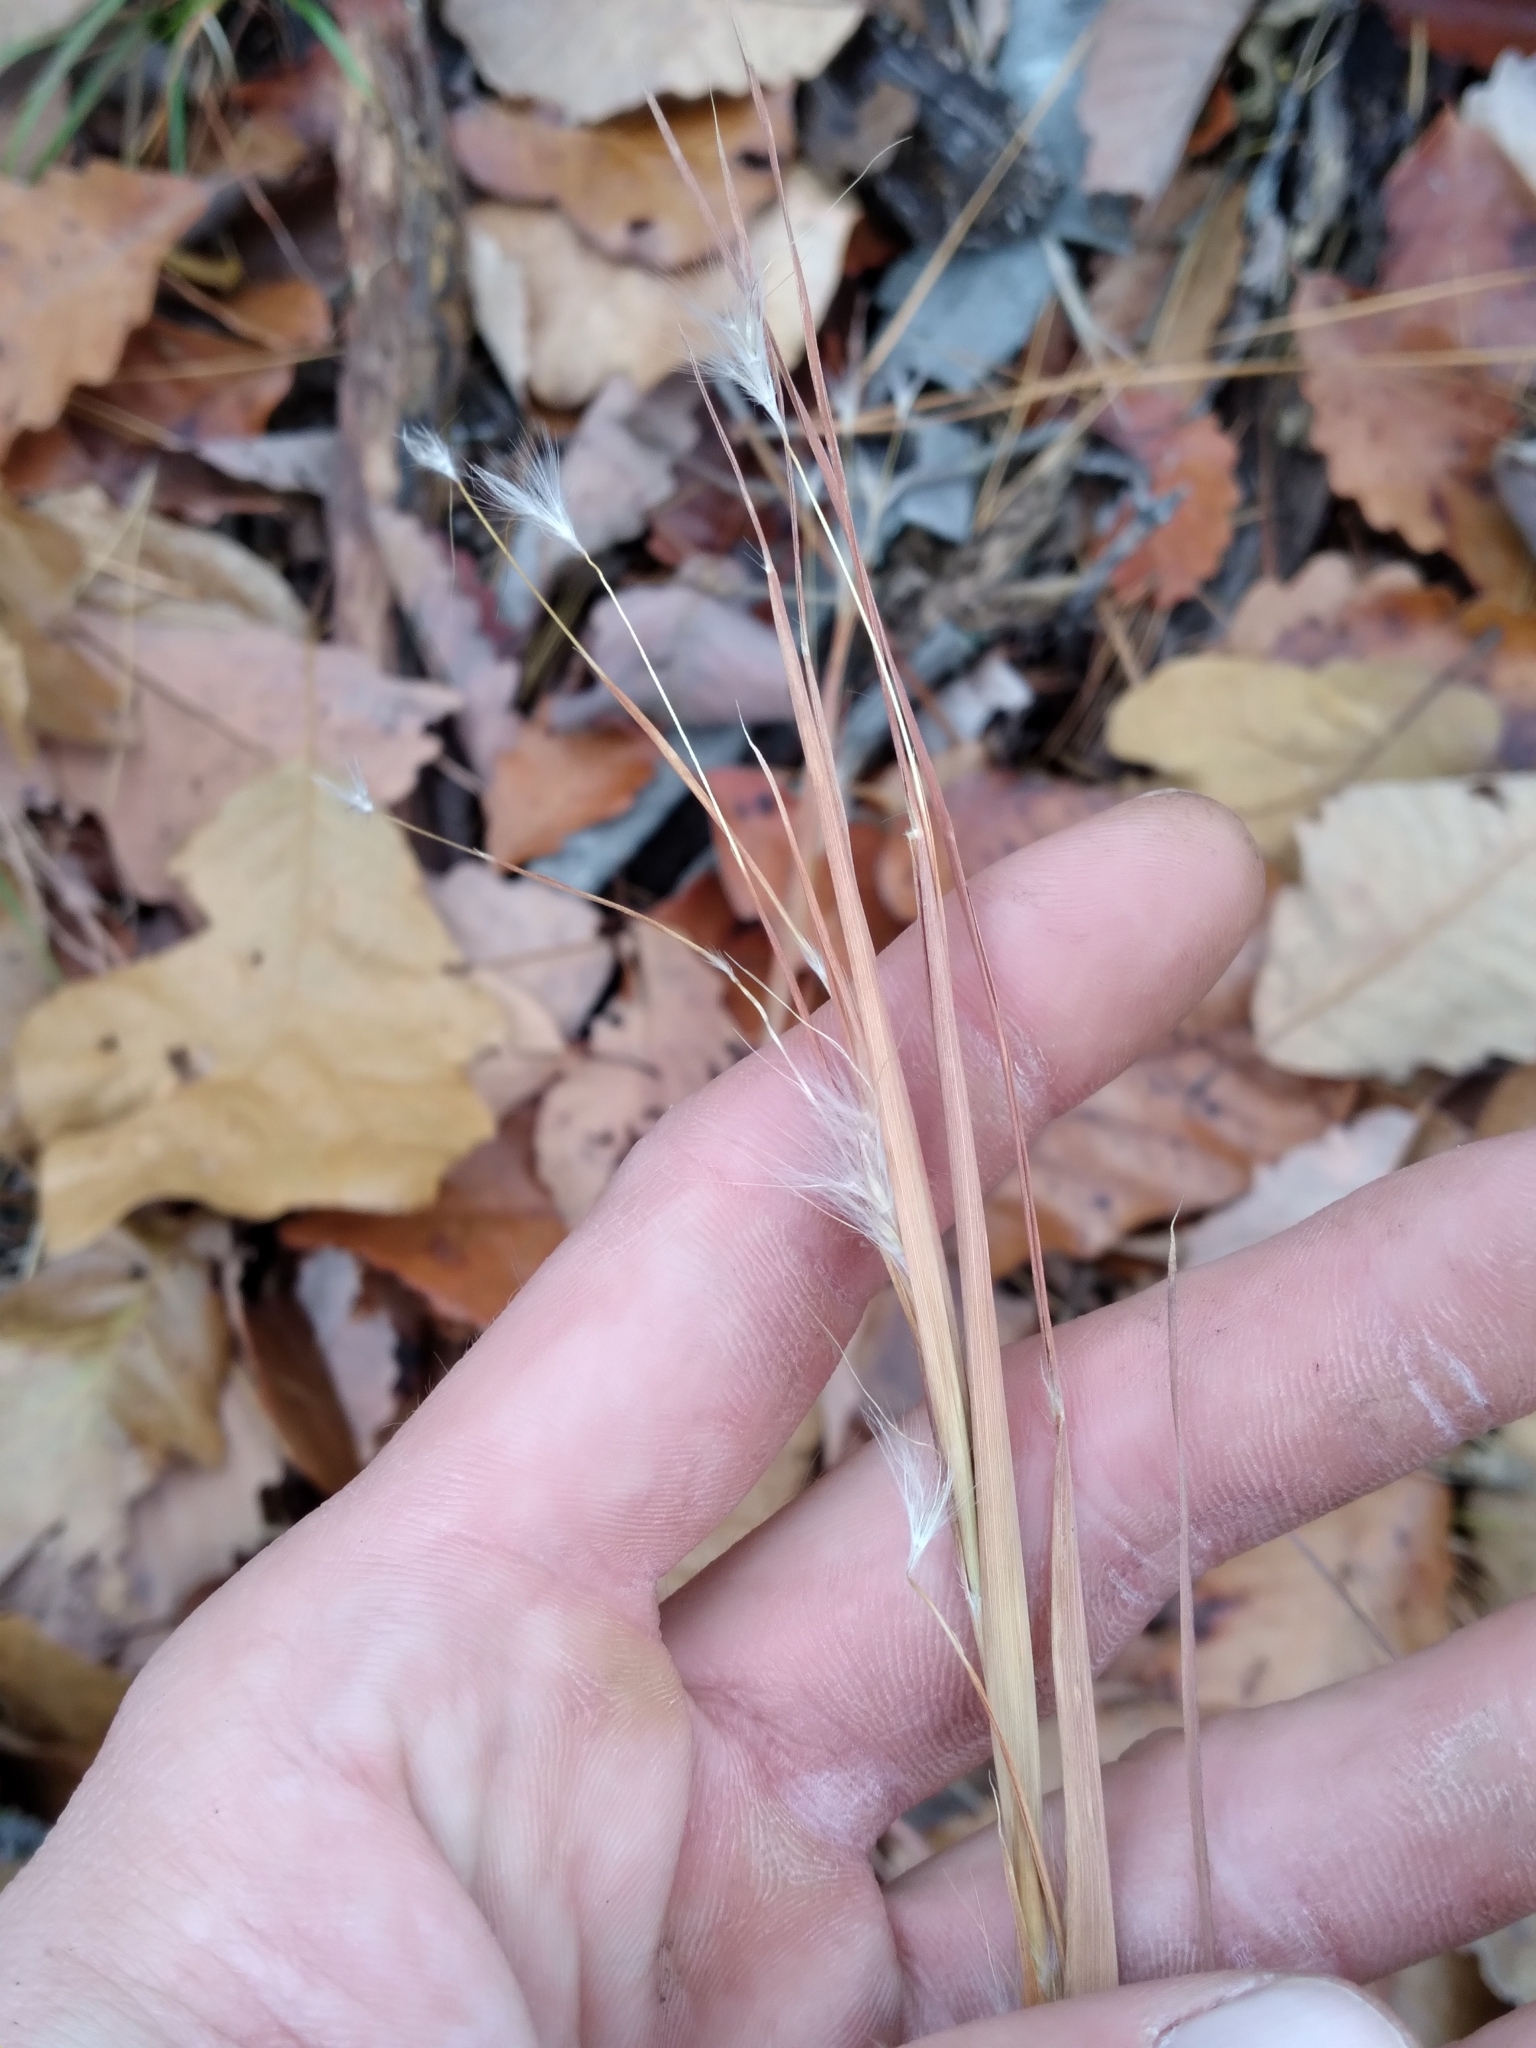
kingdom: Plantae
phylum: Tracheophyta
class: Liliopsida
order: Poales
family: Poaceae
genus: Andropogon
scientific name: Andropogon gyrans
